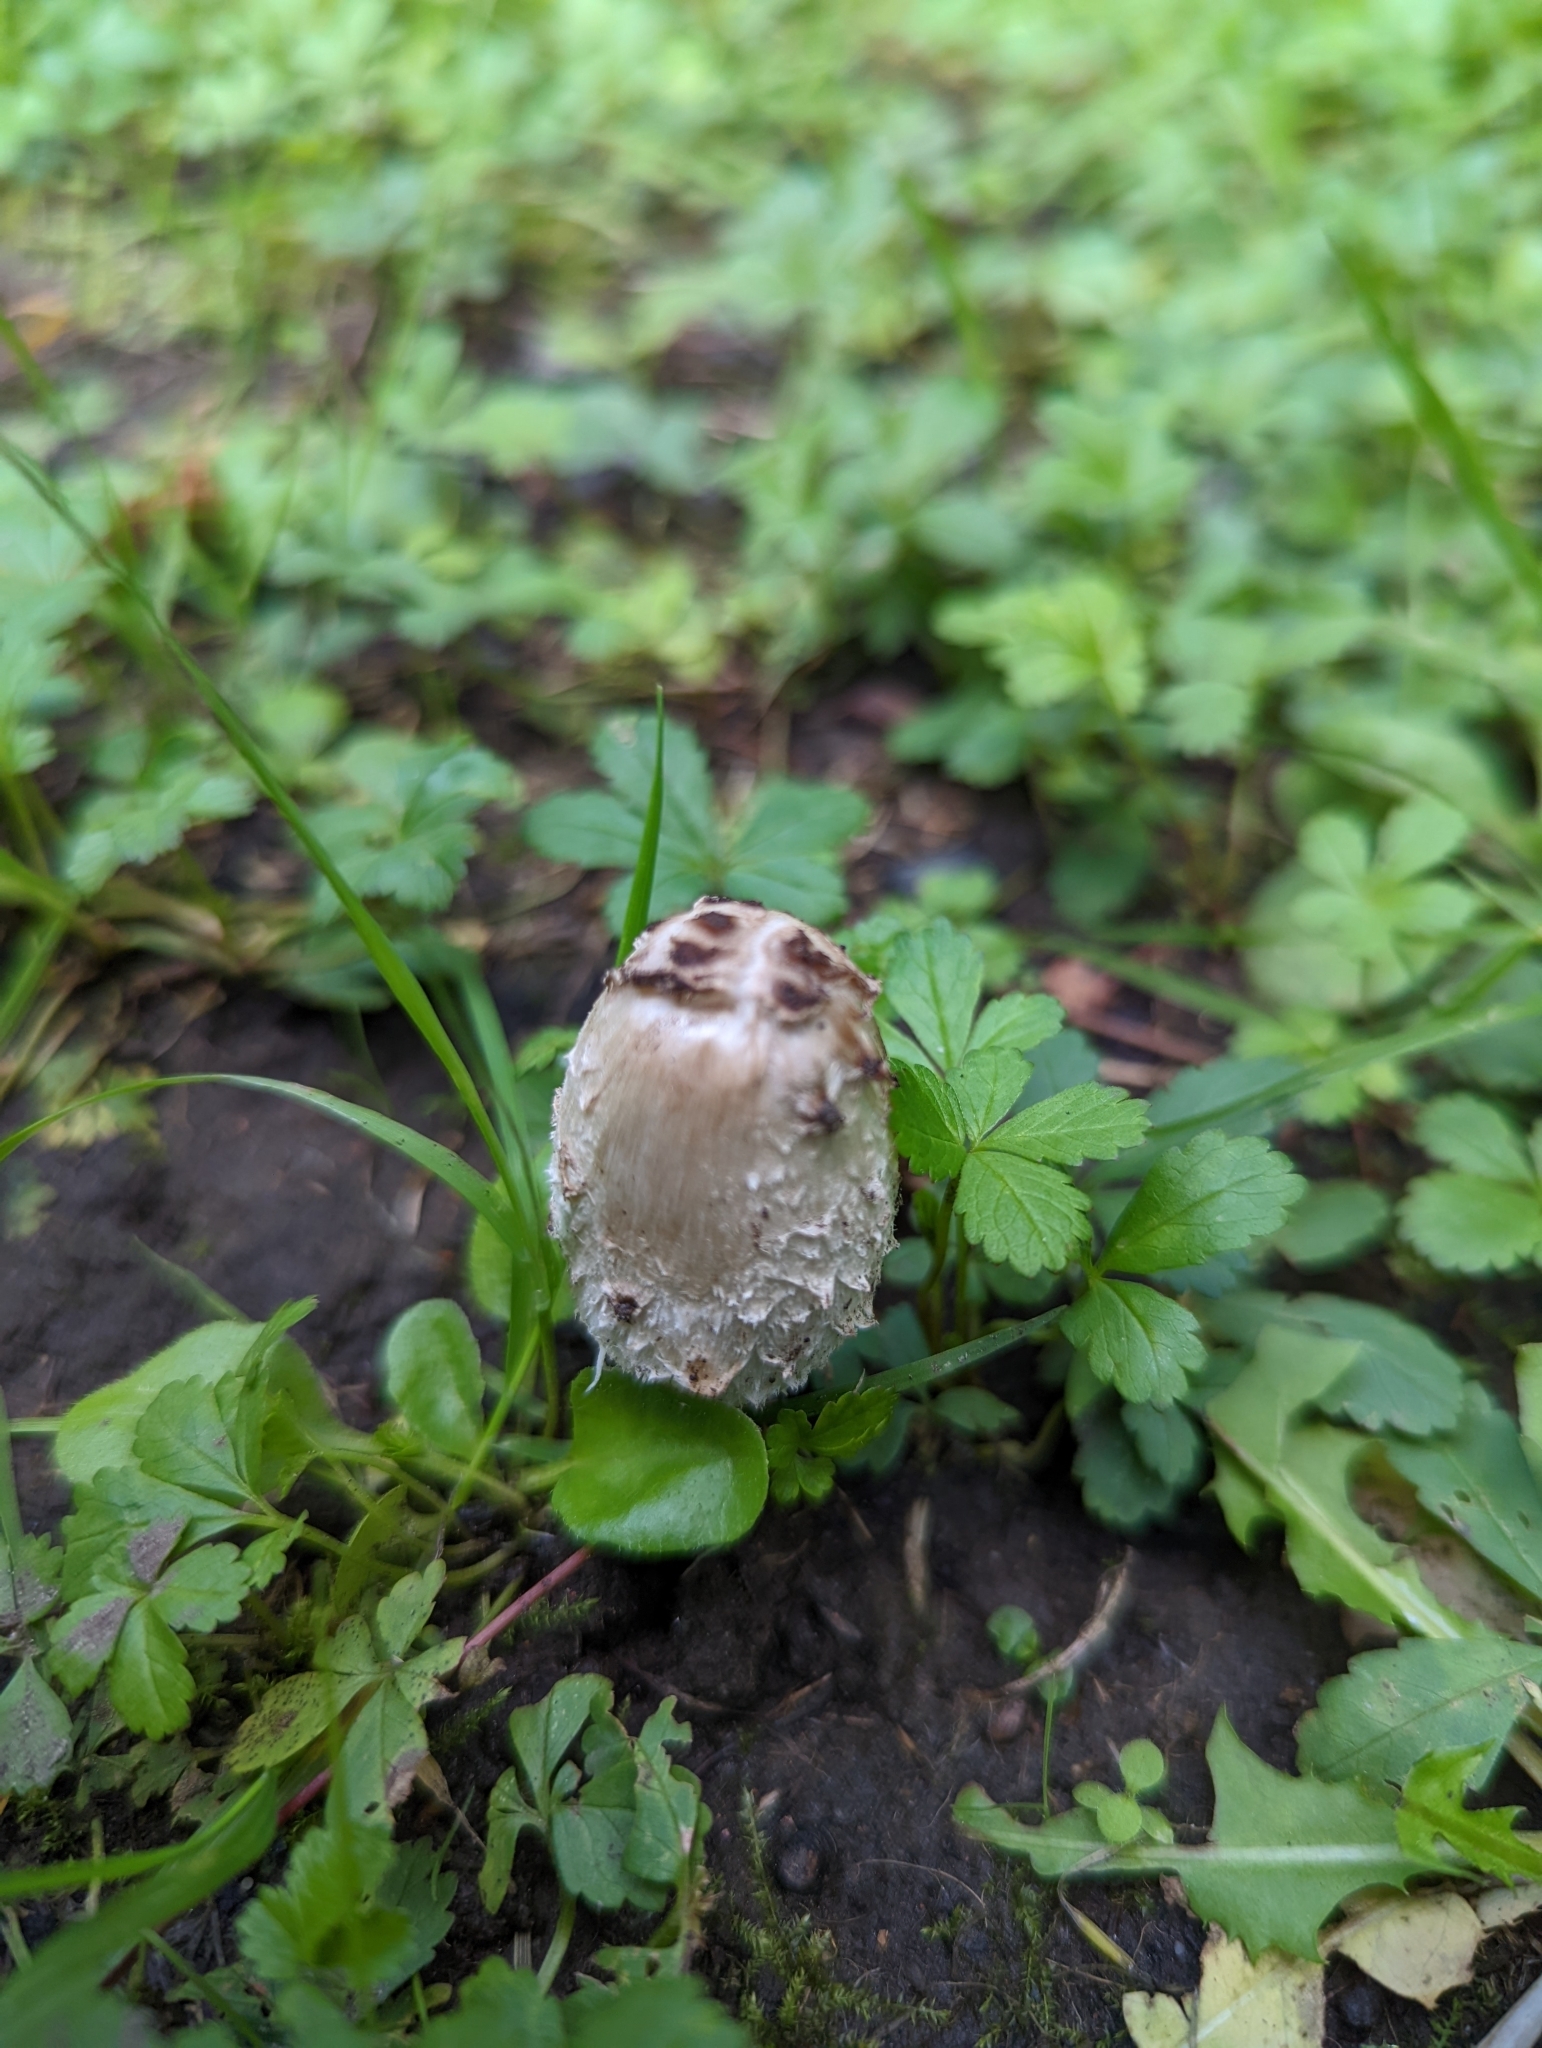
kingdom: Fungi
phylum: Basidiomycota
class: Agaricomycetes
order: Agaricales
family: Agaricaceae
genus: Coprinus
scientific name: Coprinus comatus
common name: Lawyer's wig
